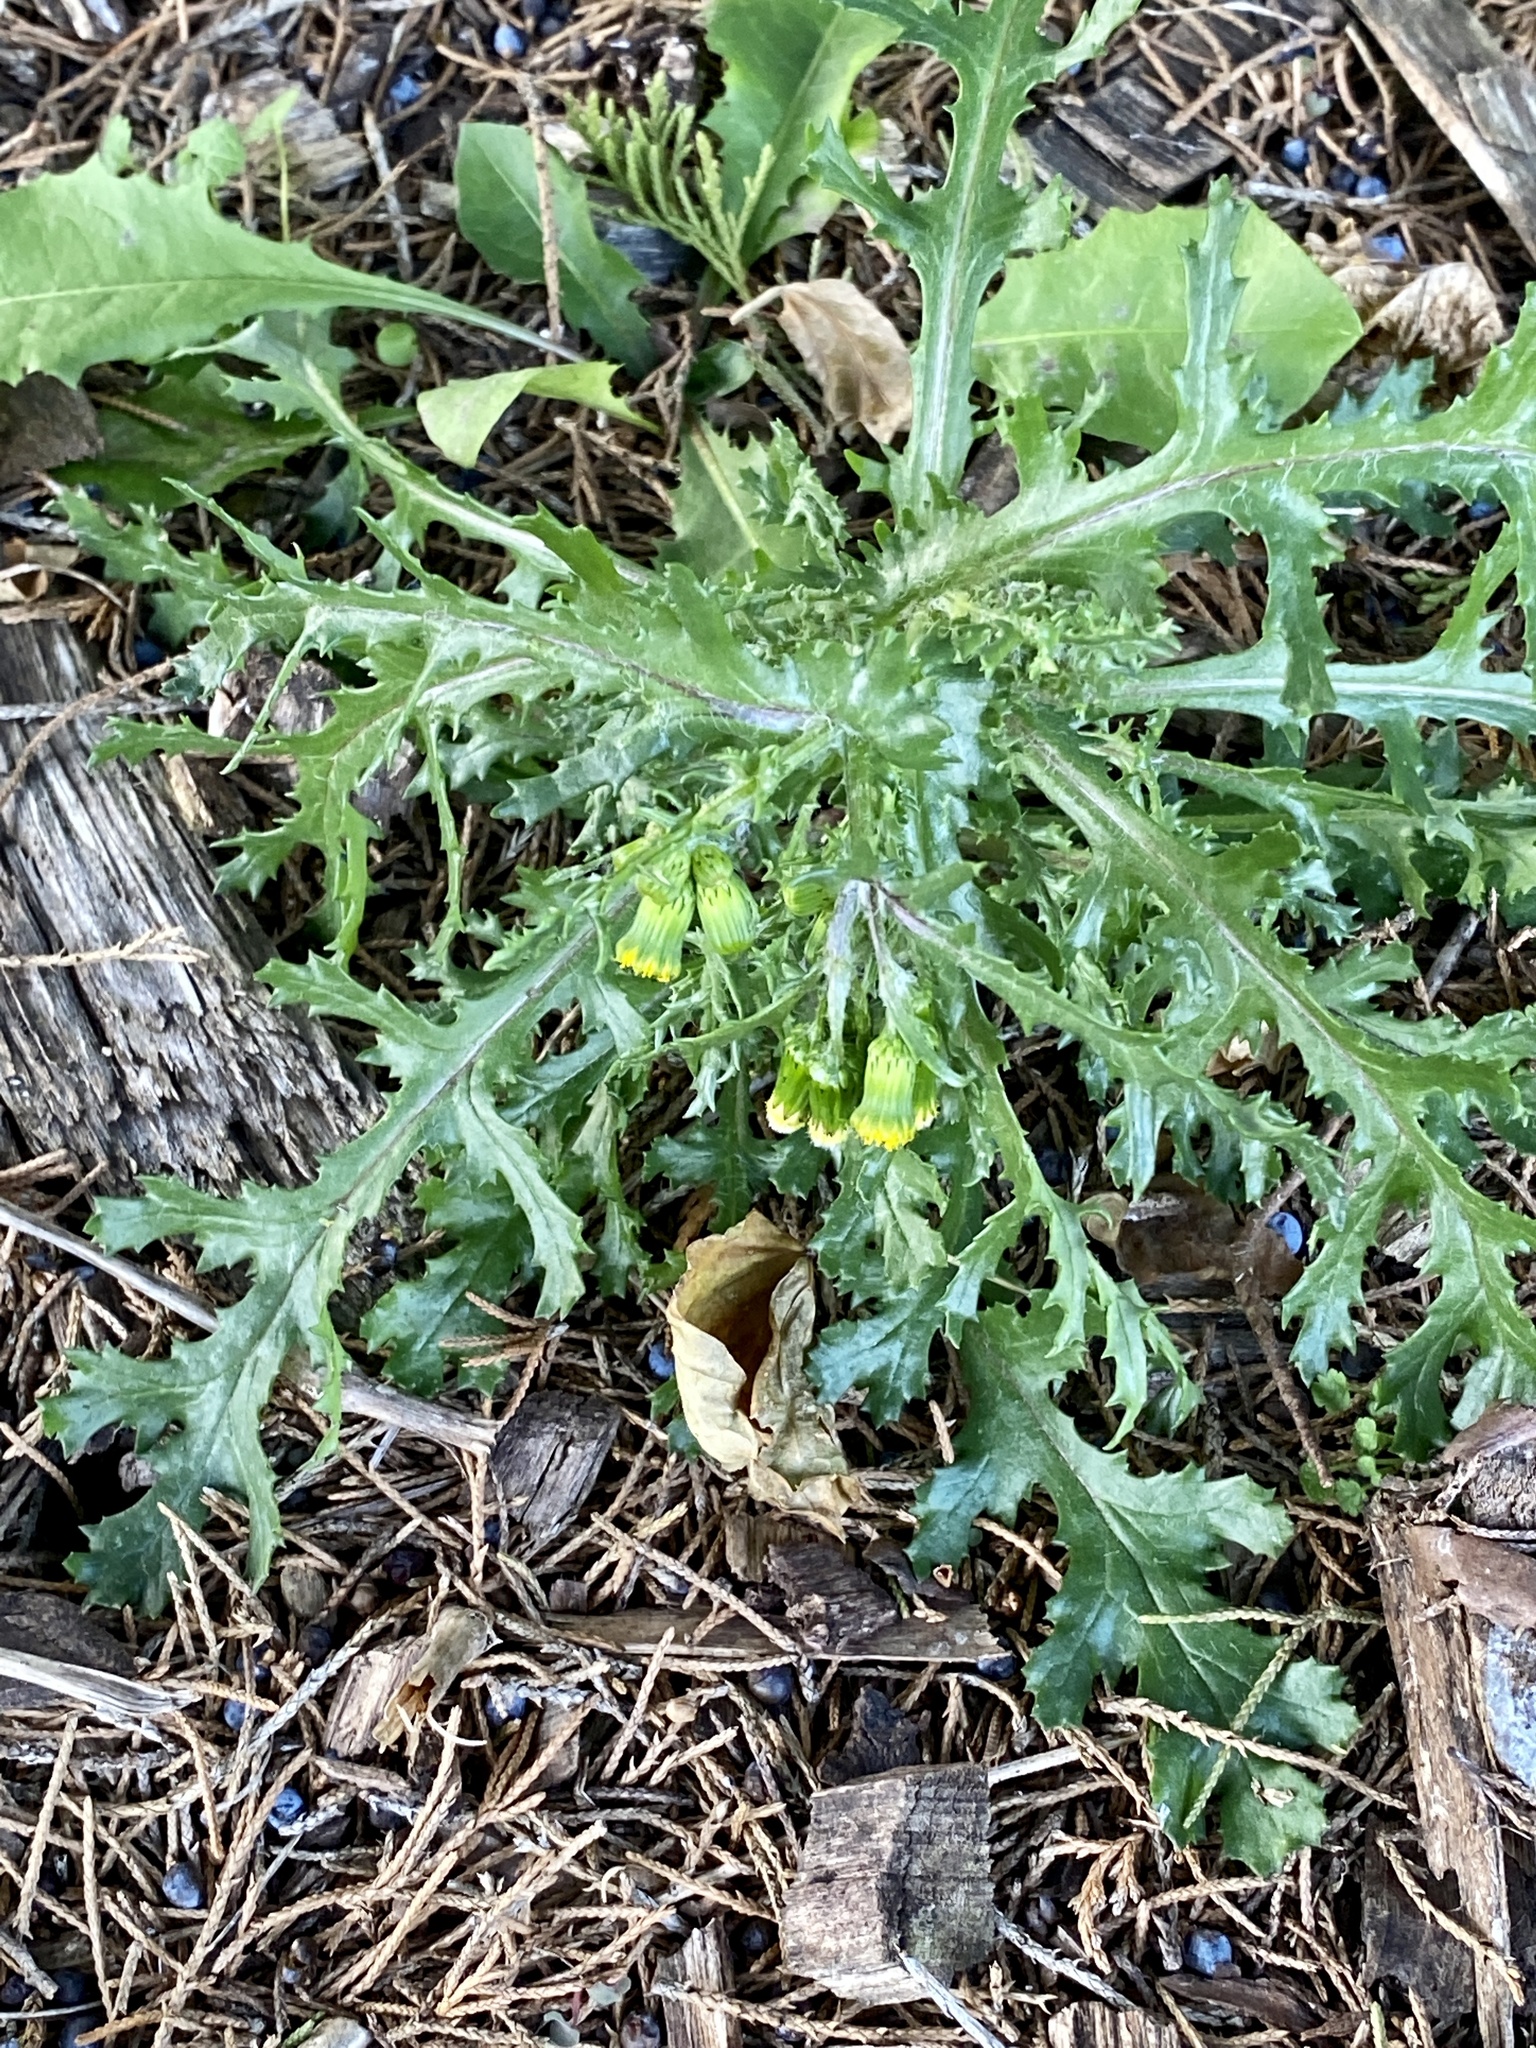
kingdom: Plantae
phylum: Tracheophyta
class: Magnoliopsida
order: Asterales
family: Asteraceae
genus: Senecio
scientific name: Senecio vulgaris
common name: Old-man-in-the-spring
